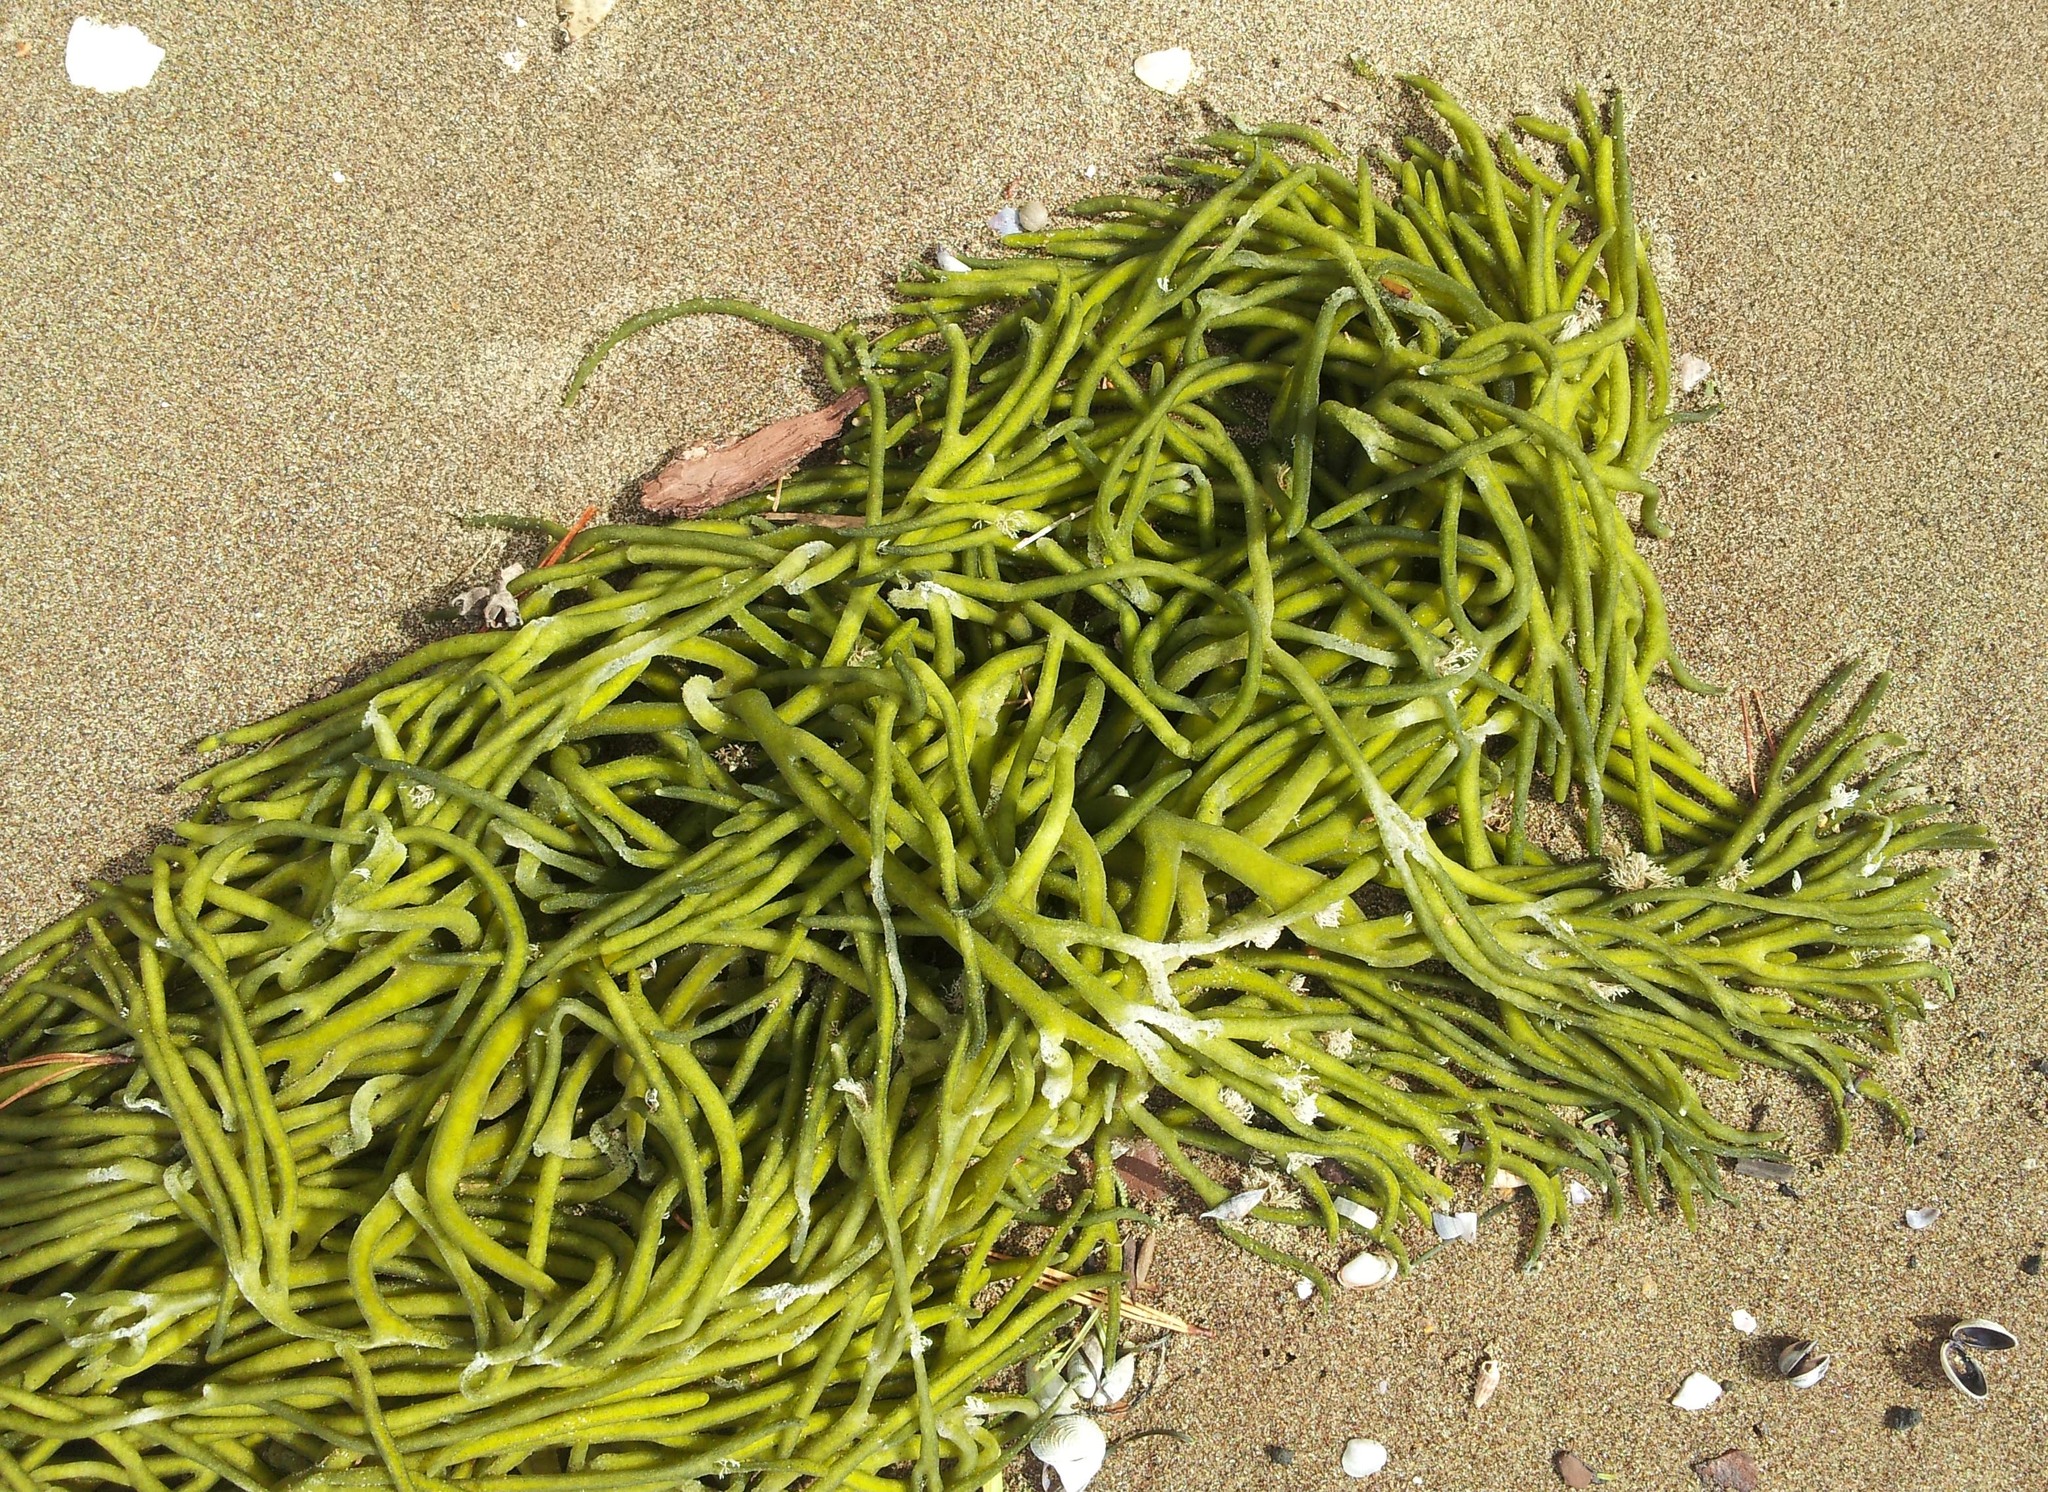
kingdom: Plantae
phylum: Chlorophyta
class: Ulvophyceae
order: Bryopsidales
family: Codiaceae
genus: Codium
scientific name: Codium fragile
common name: Dead man's fingers
